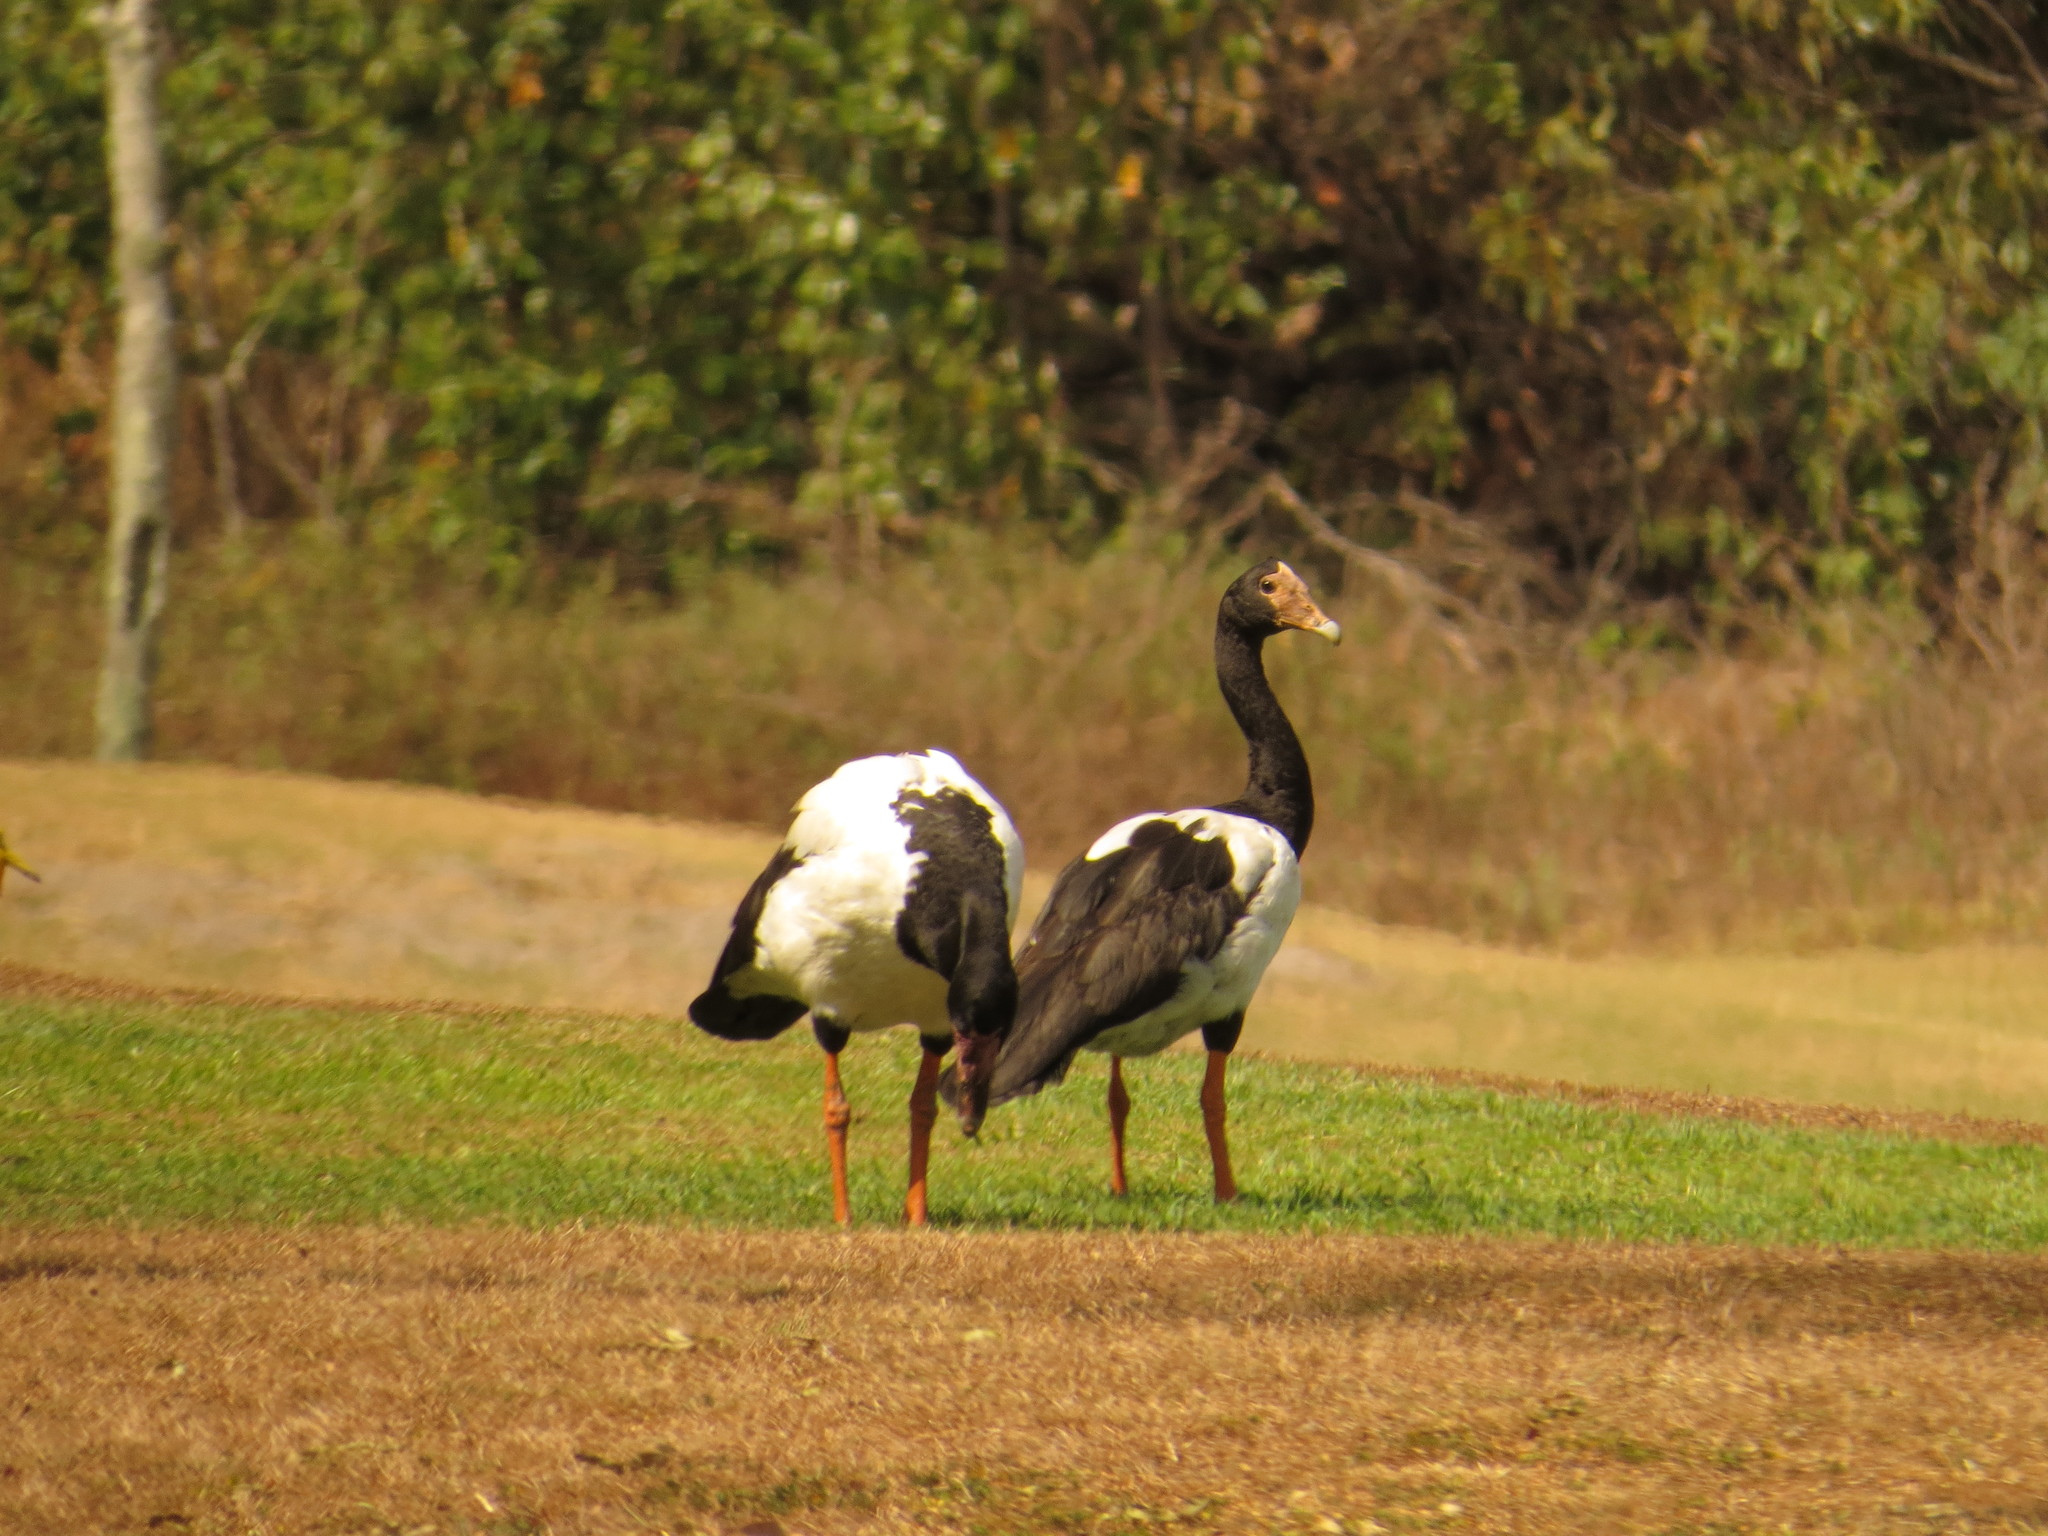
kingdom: Animalia
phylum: Chordata
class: Aves
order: Anseriformes
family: Anseranatidae
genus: Anseranas
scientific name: Anseranas semipalmata
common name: Magpie goose
